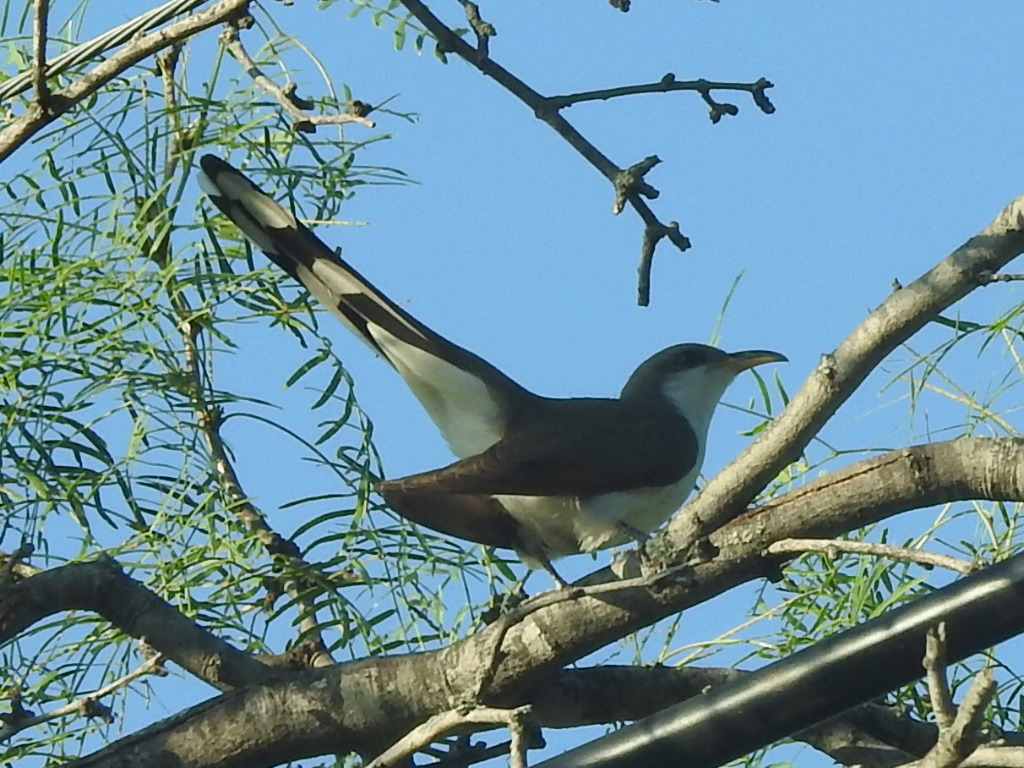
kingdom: Animalia
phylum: Chordata
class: Aves
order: Cuculiformes
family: Cuculidae
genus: Coccyzus
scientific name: Coccyzus americanus
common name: Yellow-billed cuckoo
